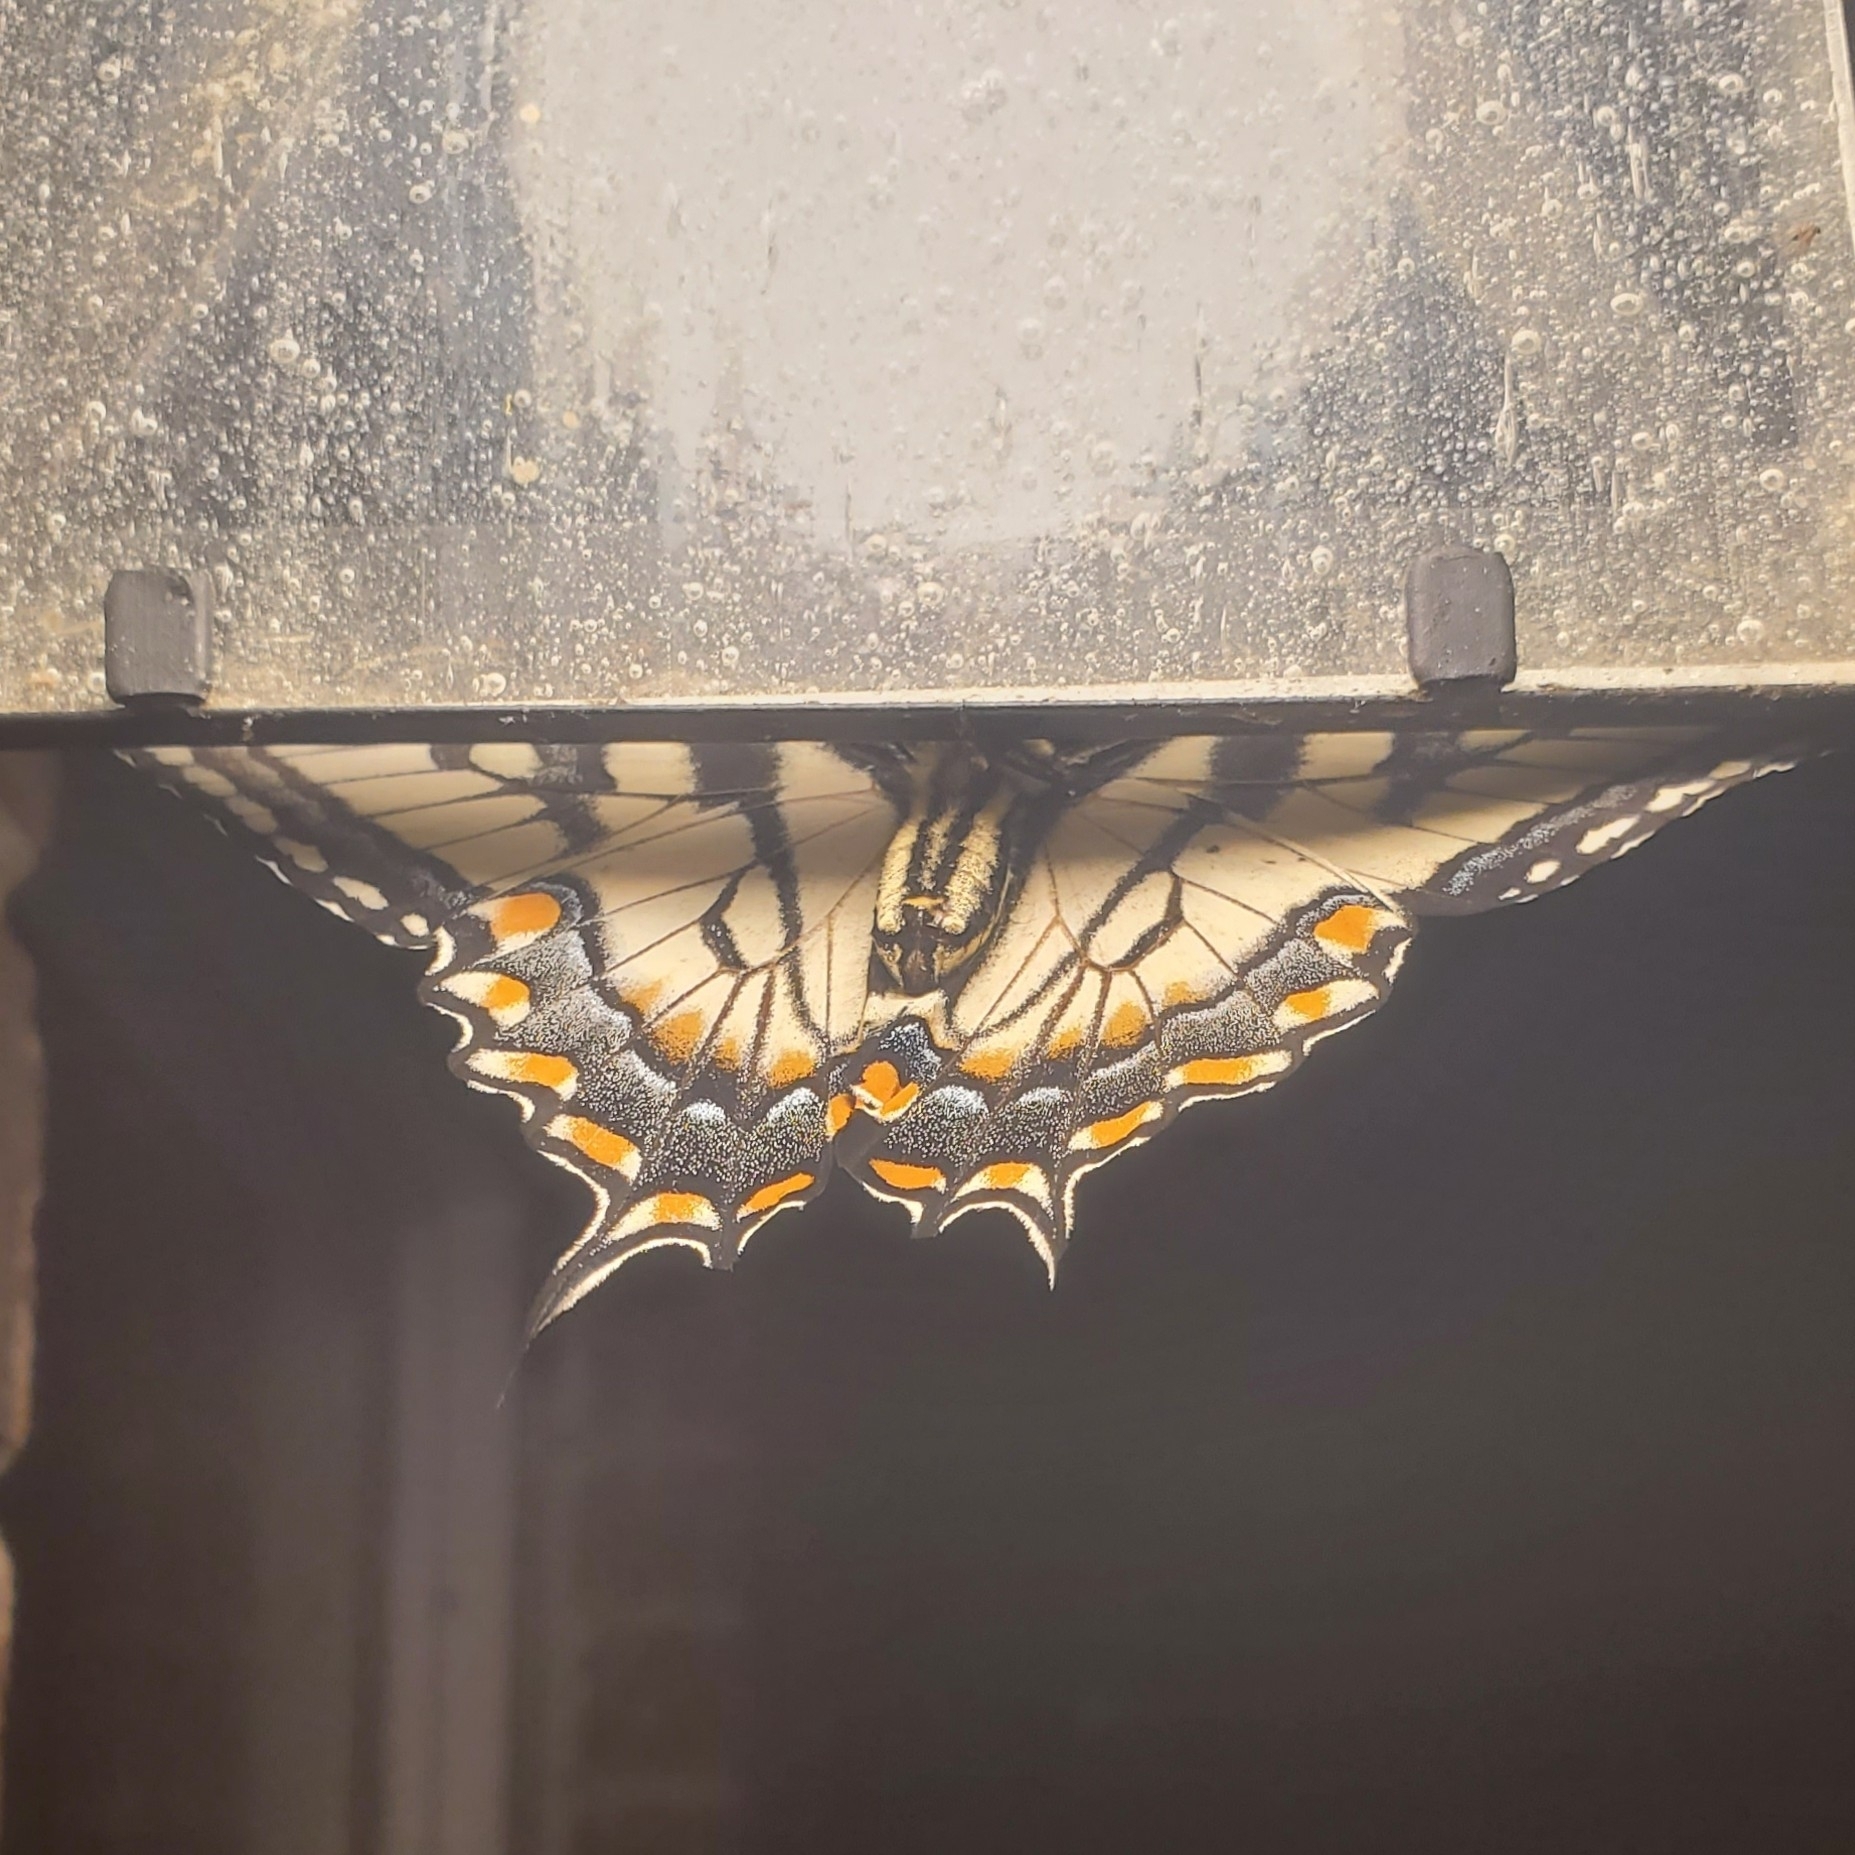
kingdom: Animalia
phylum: Arthropoda
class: Insecta
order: Lepidoptera
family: Papilionidae
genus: Papilio
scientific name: Papilio glaucus
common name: Tiger swallowtail
